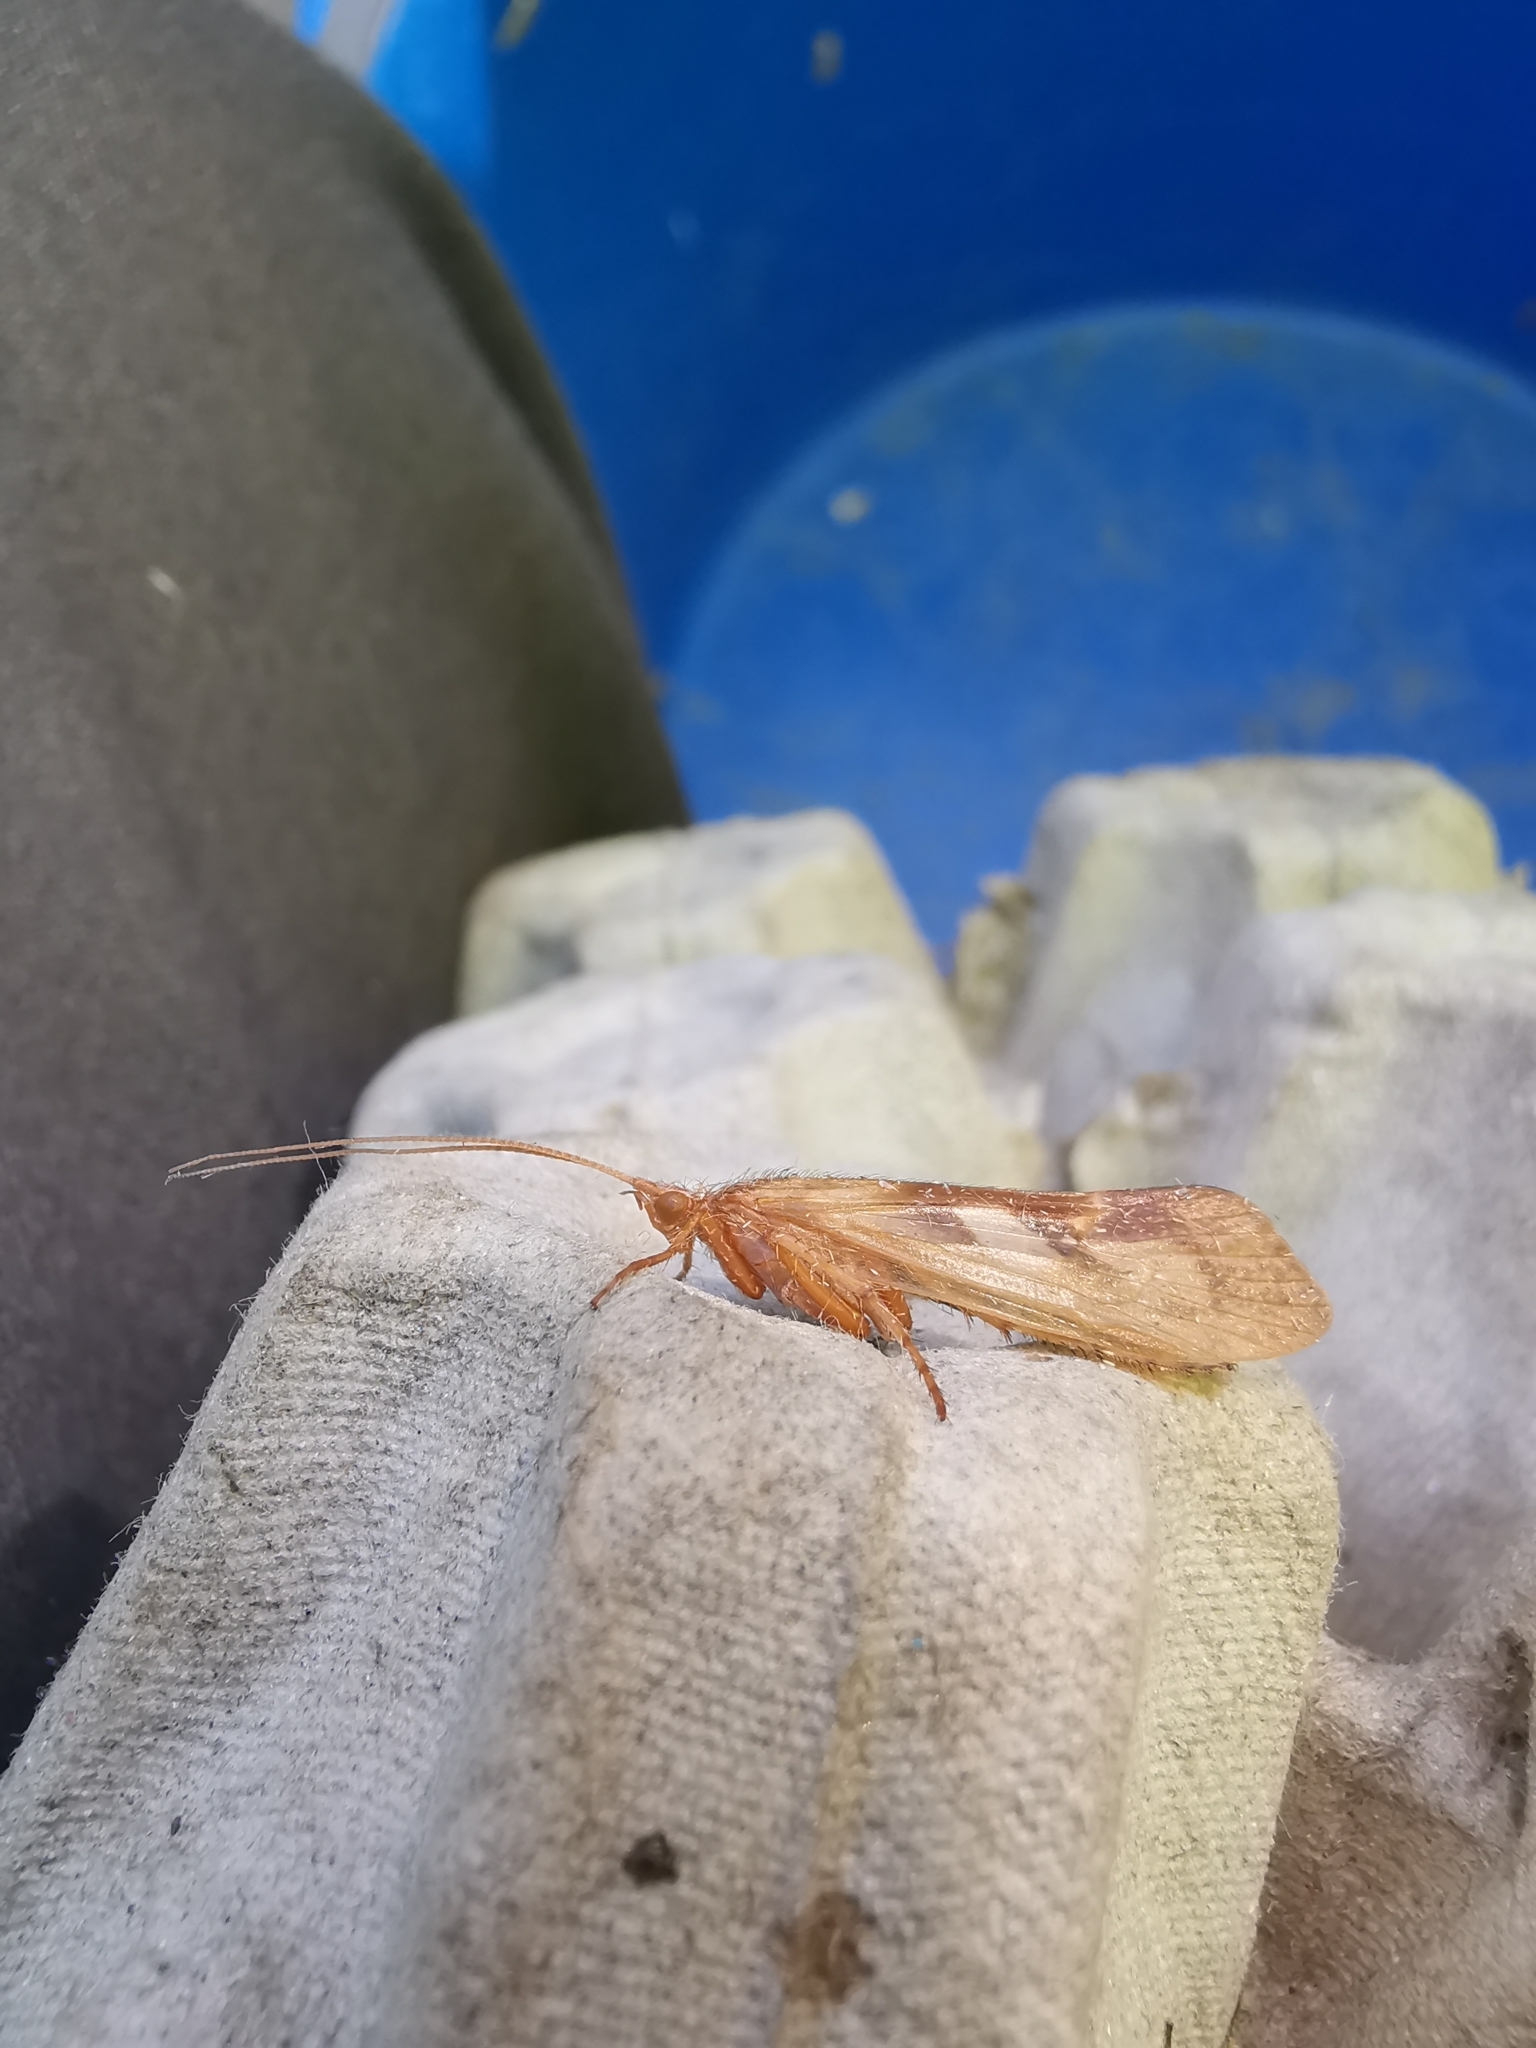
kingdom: Animalia
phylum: Arthropoda
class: Insecta
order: Trichoptera
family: Limnephilidae
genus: Limnephilus
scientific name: Limnephilus rhombicus
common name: Diamond northern caddisfly
